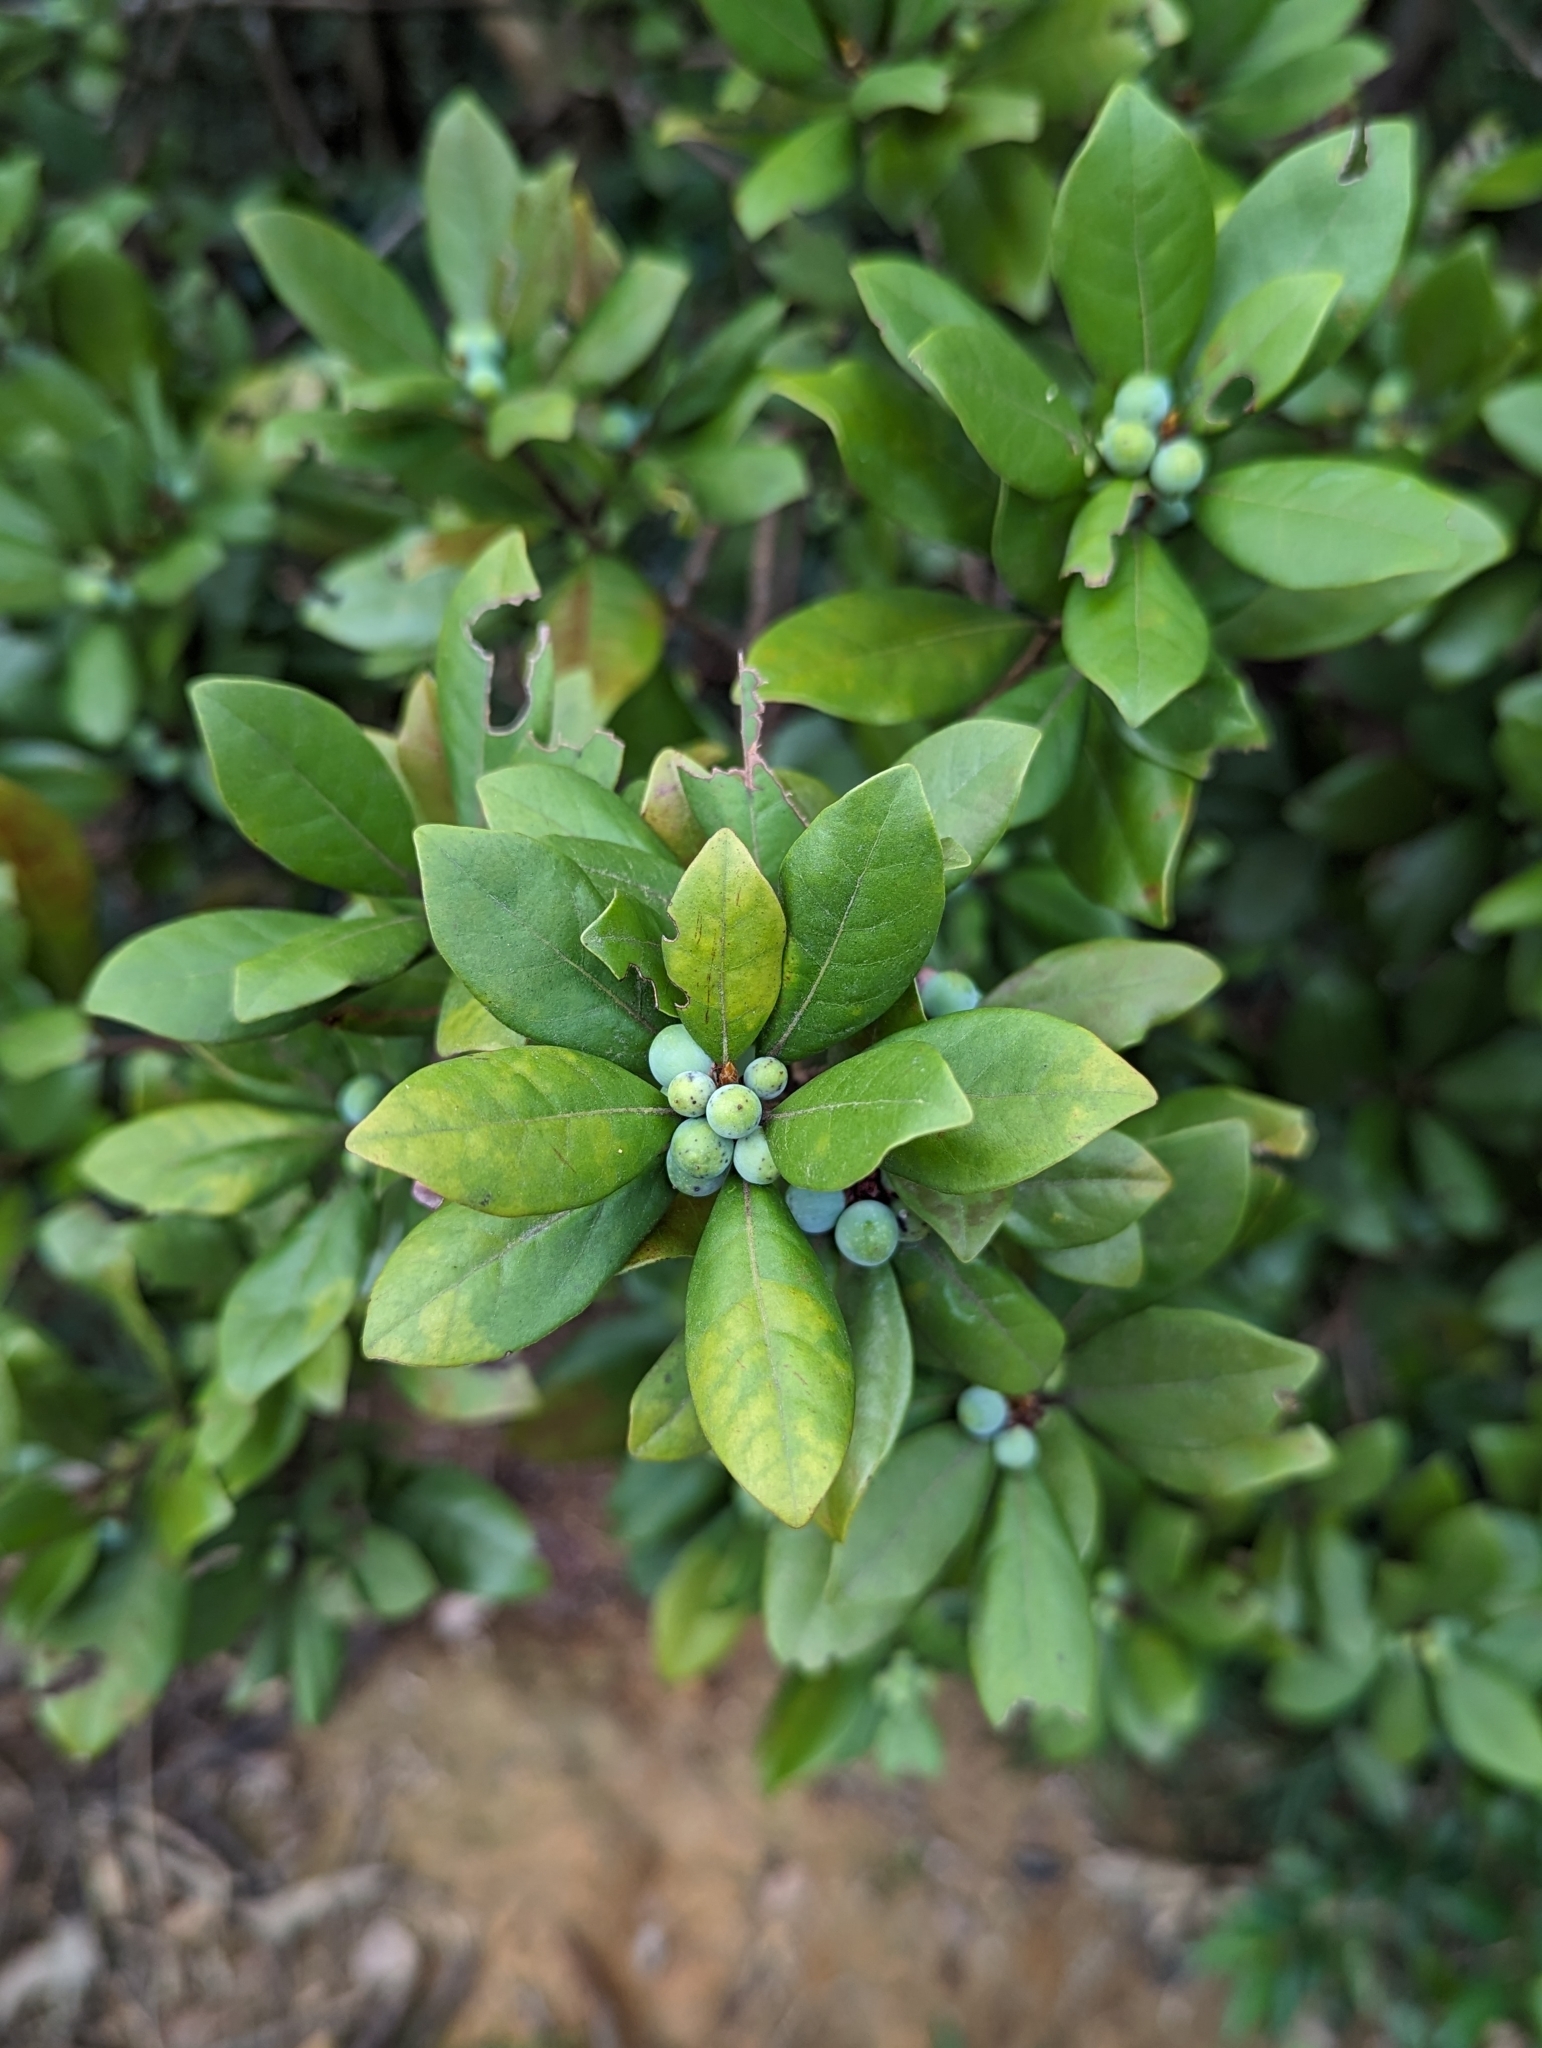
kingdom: Plantae
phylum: Tracheophyta
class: Magnoliopsida
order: Laurales
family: Lauraceae
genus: Litsea
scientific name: Litsea rotundifolia
